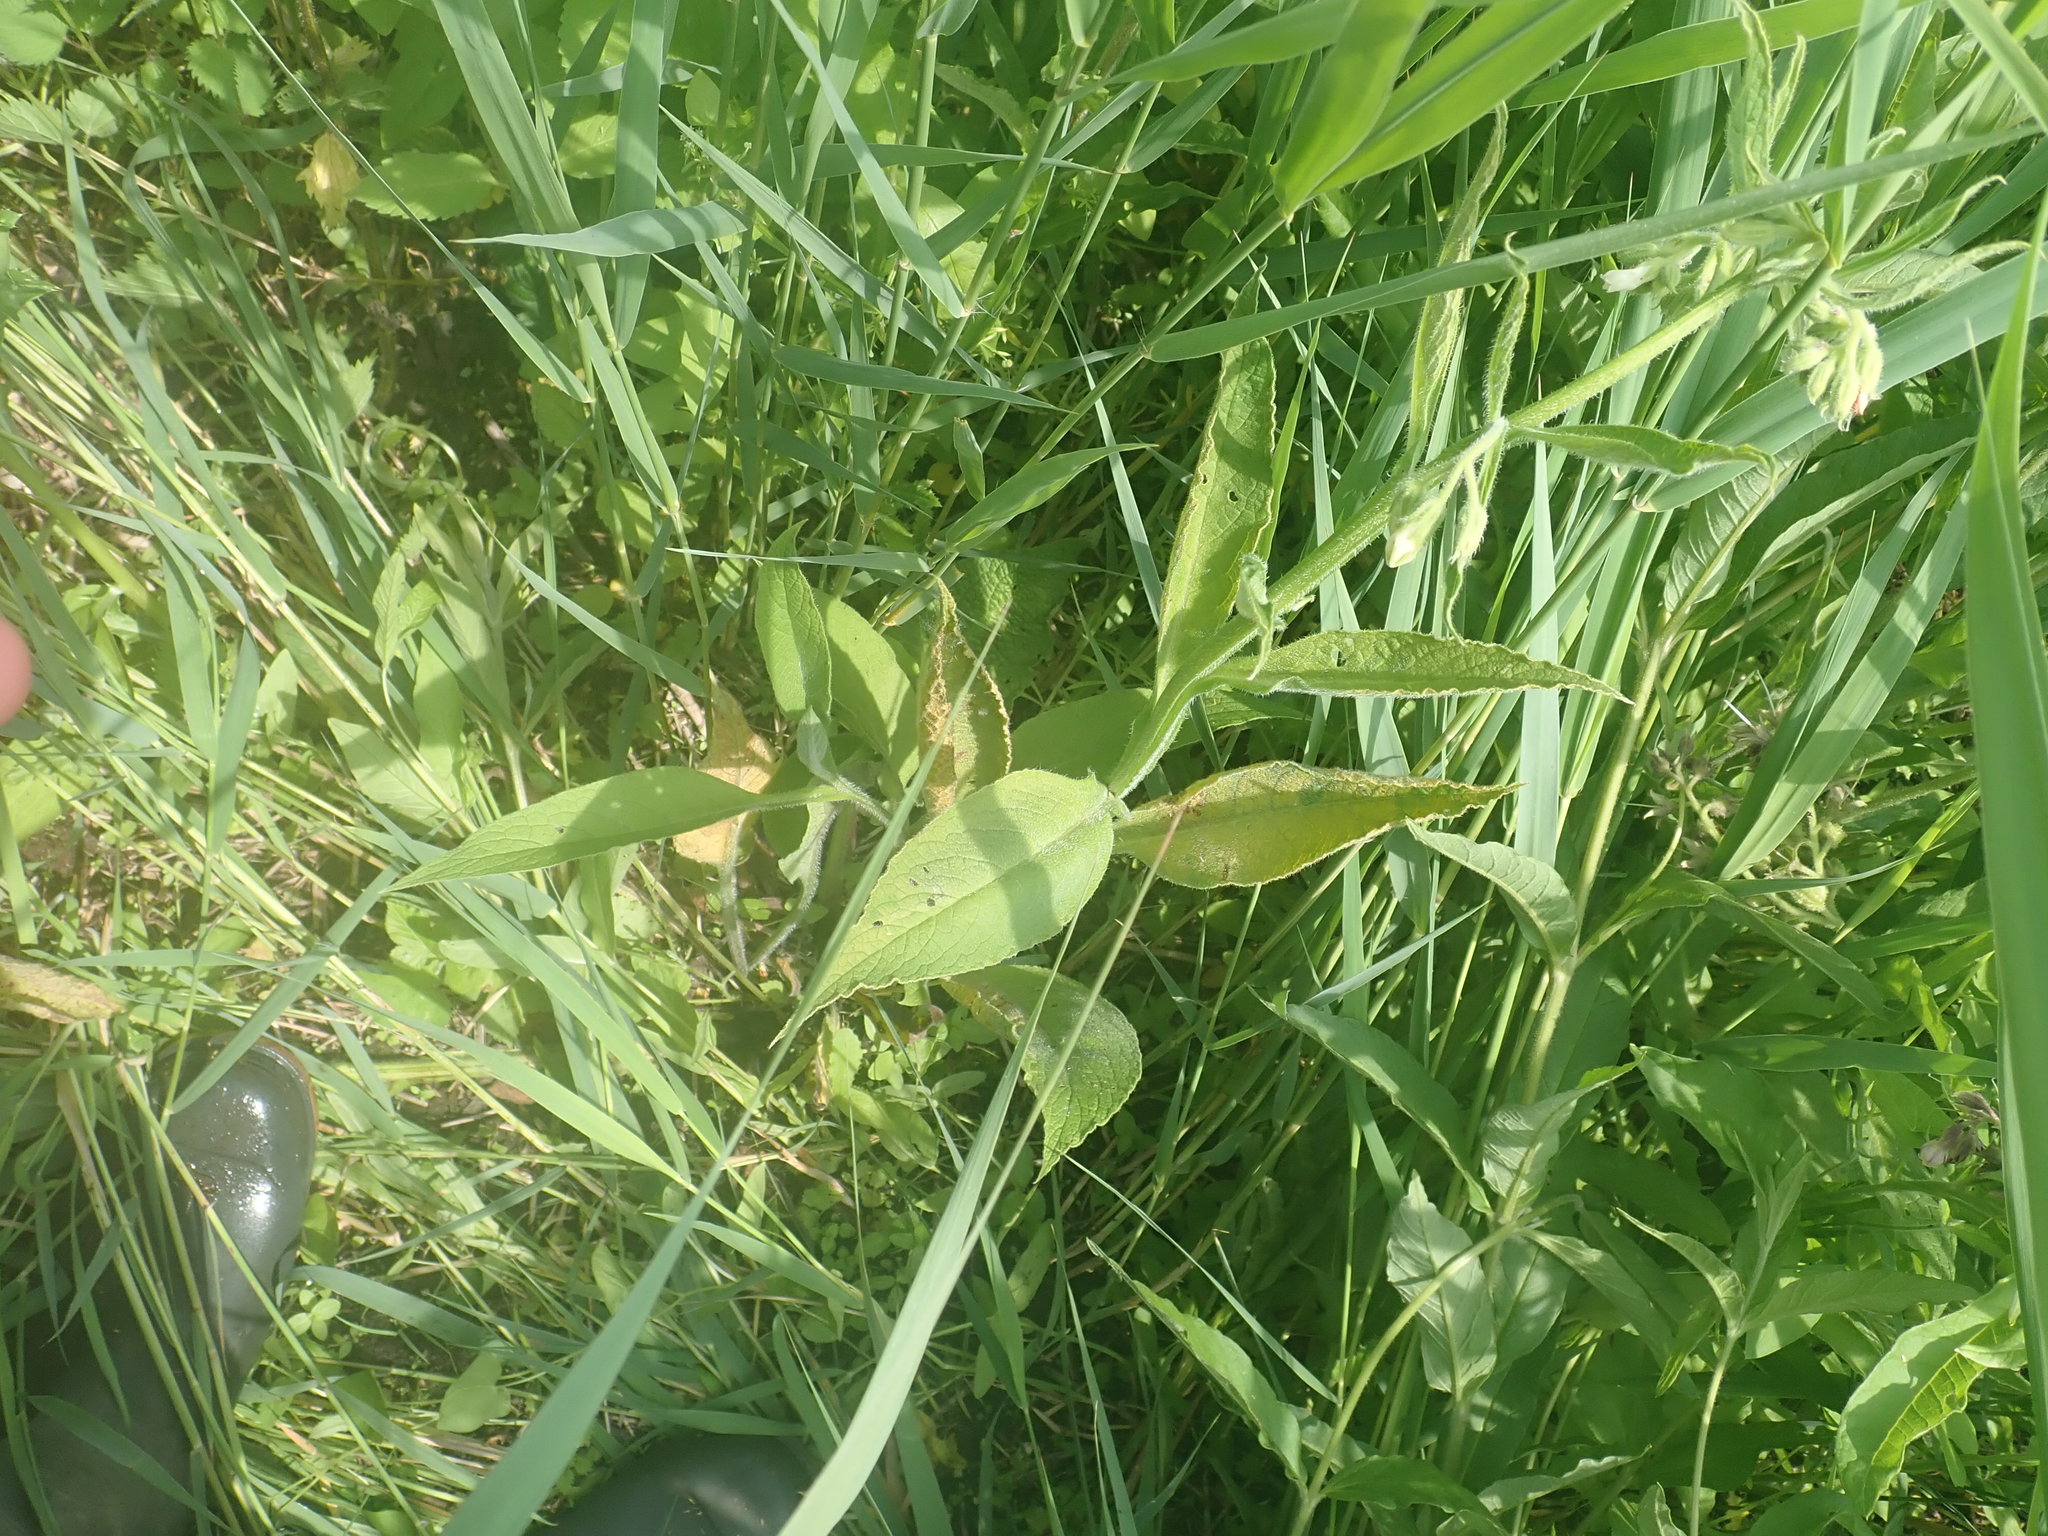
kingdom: Fungi
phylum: Basidiomycota
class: Pucciniomycetes
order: Pucciniales
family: Pucciniastraceae
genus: Pucciniastrum
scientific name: Pucciniastrum symphyti
